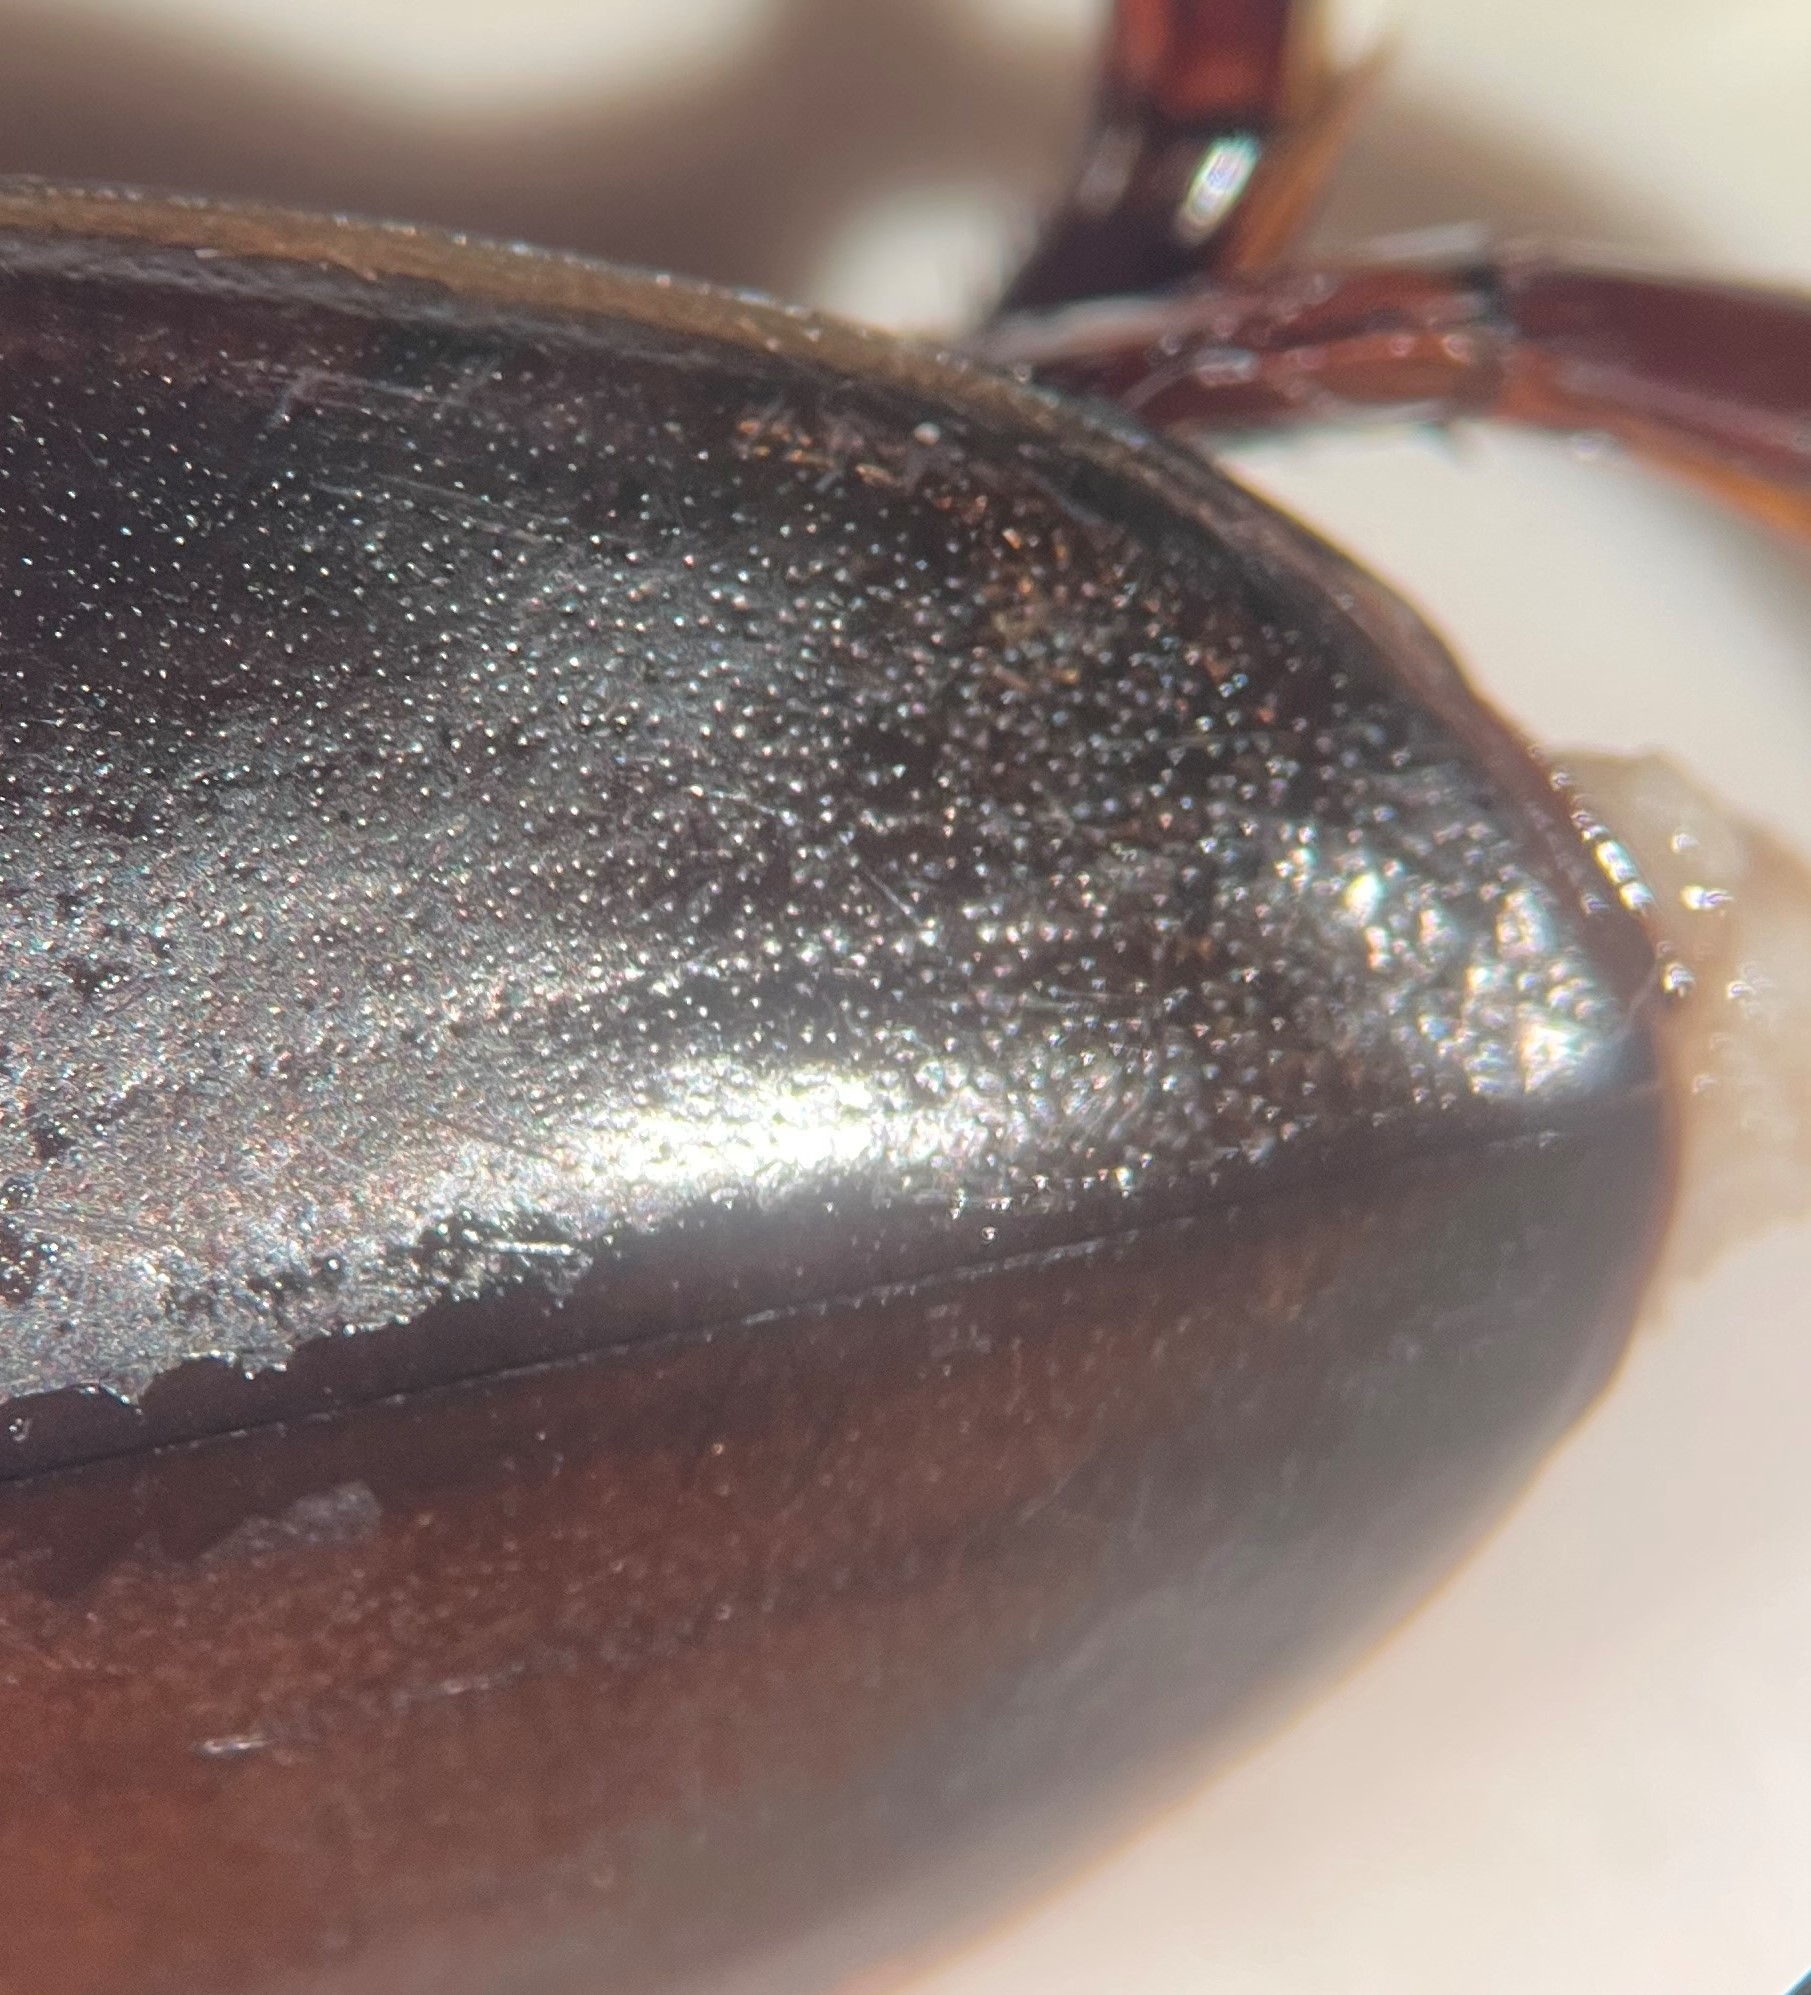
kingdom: Animalia
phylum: Arthropoda
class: Insecta
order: Coleoptera
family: Dytiscidae
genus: Dytiscus
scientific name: Dytiscus marginicollis
